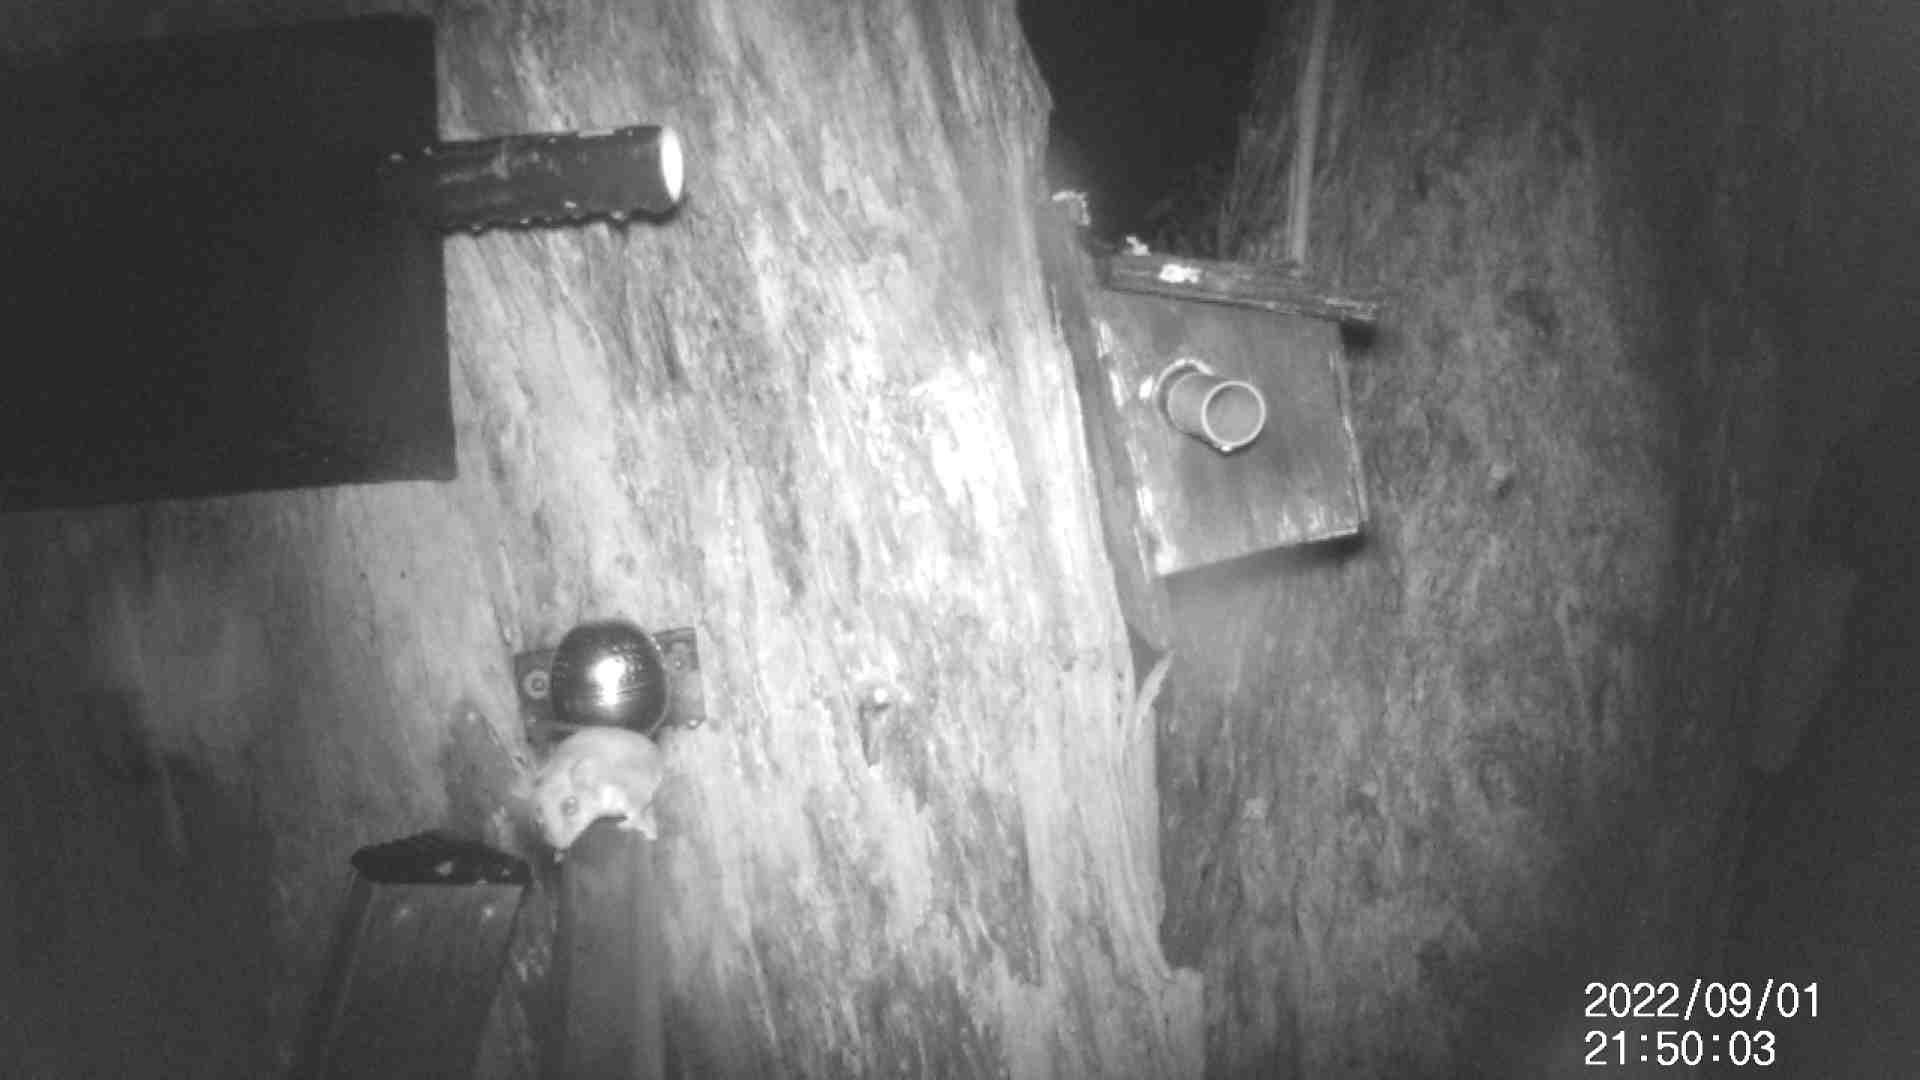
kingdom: Animalia
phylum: Chordata
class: Mammalia
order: Diprotodontia
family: Acrobatidae
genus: Acrobates
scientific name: Acrobates pygmaeus
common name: Feathertail glider
